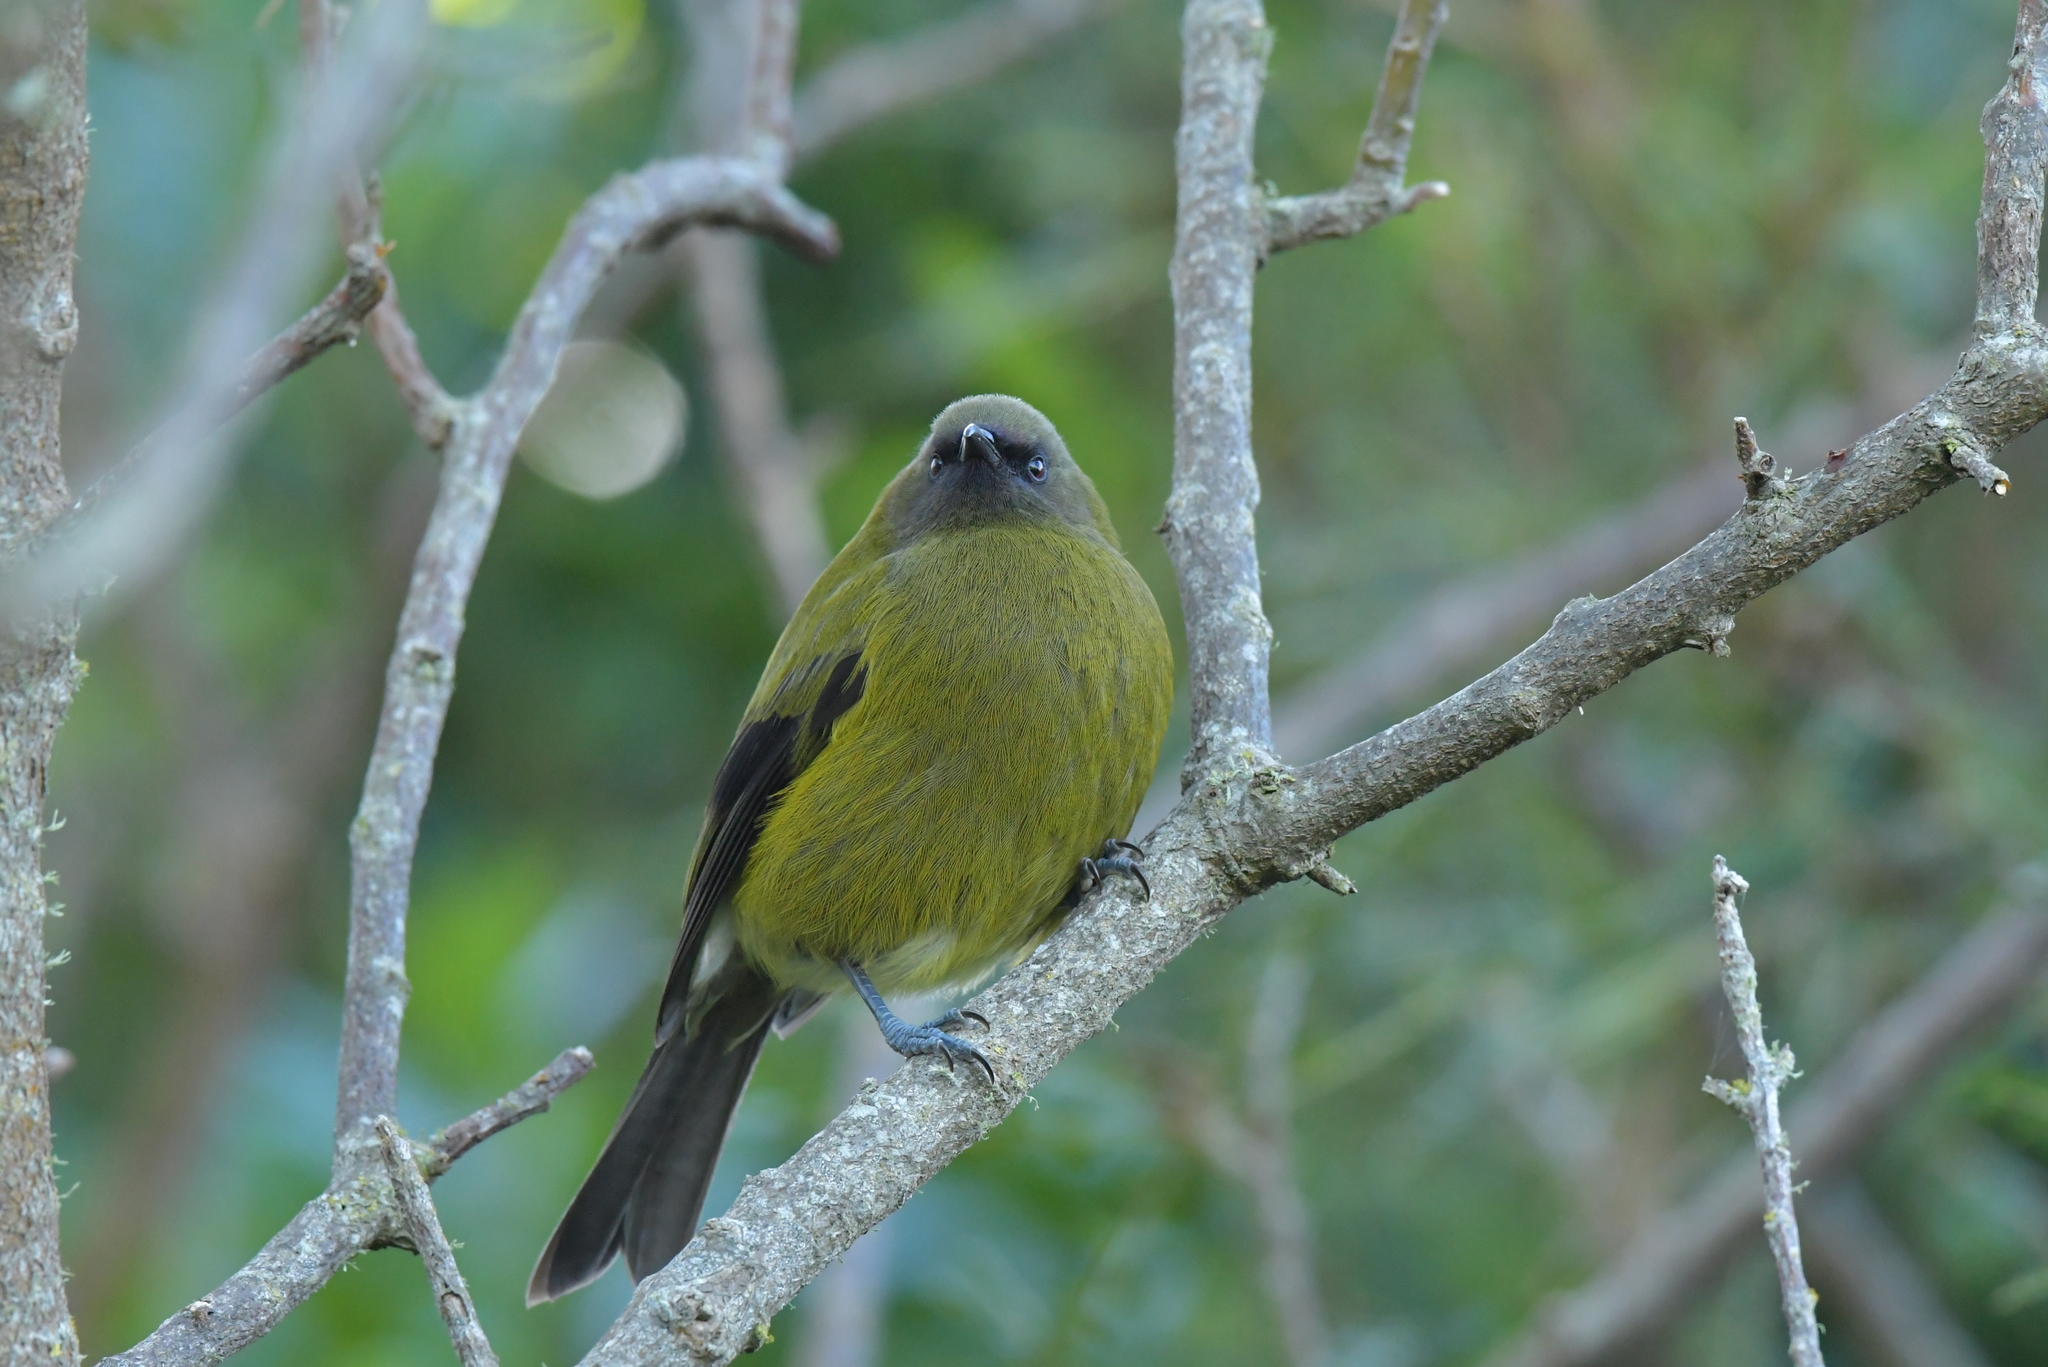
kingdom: Animalia
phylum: Chordata
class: Aves
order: Passeriformes
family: Meliphagidae
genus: Anthornis
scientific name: Anthornis melanura
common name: New zealand bellbird
